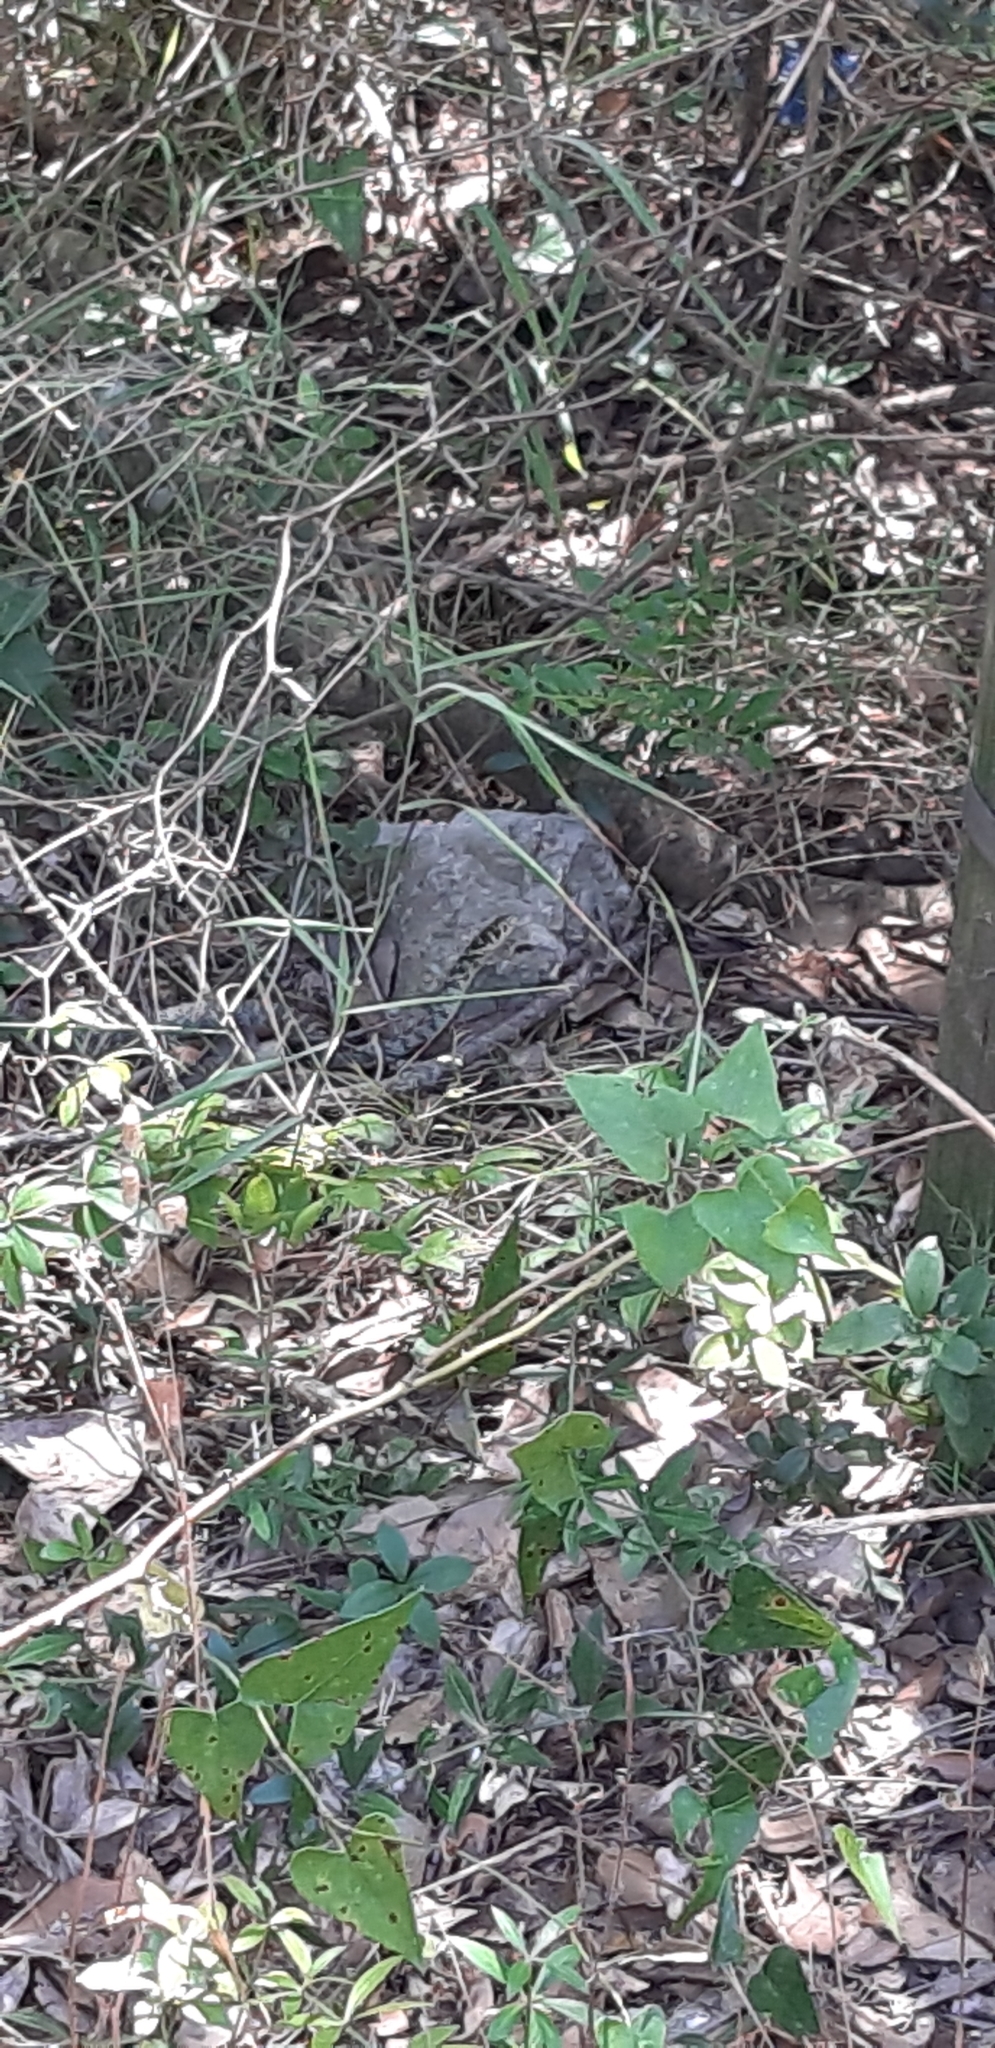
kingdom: Animalia
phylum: Chordata
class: Squamata
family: Colubridae
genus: Hierophis
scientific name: Hierophis viridiflavus
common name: Green whip snake
